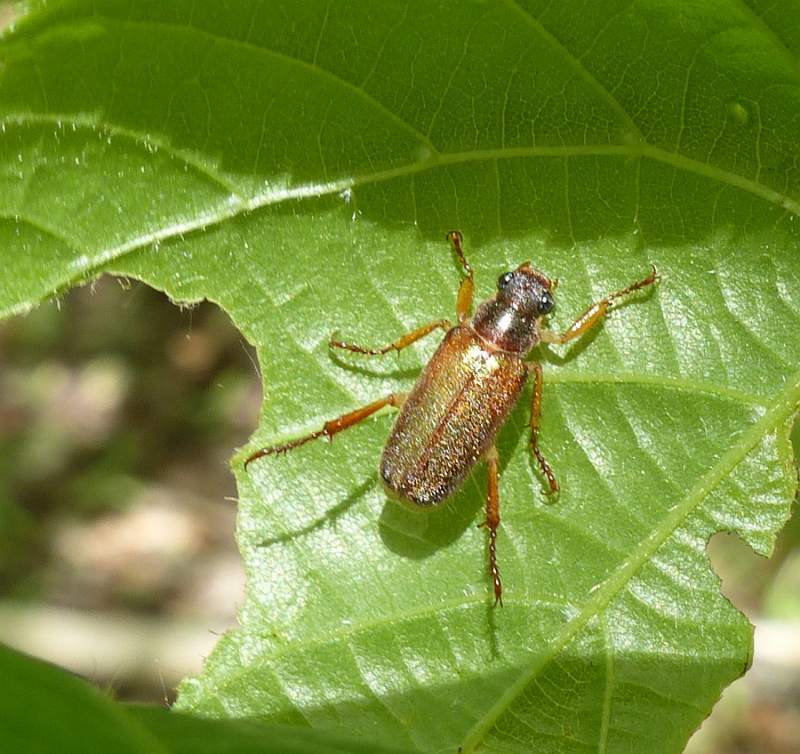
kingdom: Animalia
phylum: Arthropoda
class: Insecta
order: Coleoptera
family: Scarabaeidae
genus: Dichelonyx
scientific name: Dichelonyx linearis
